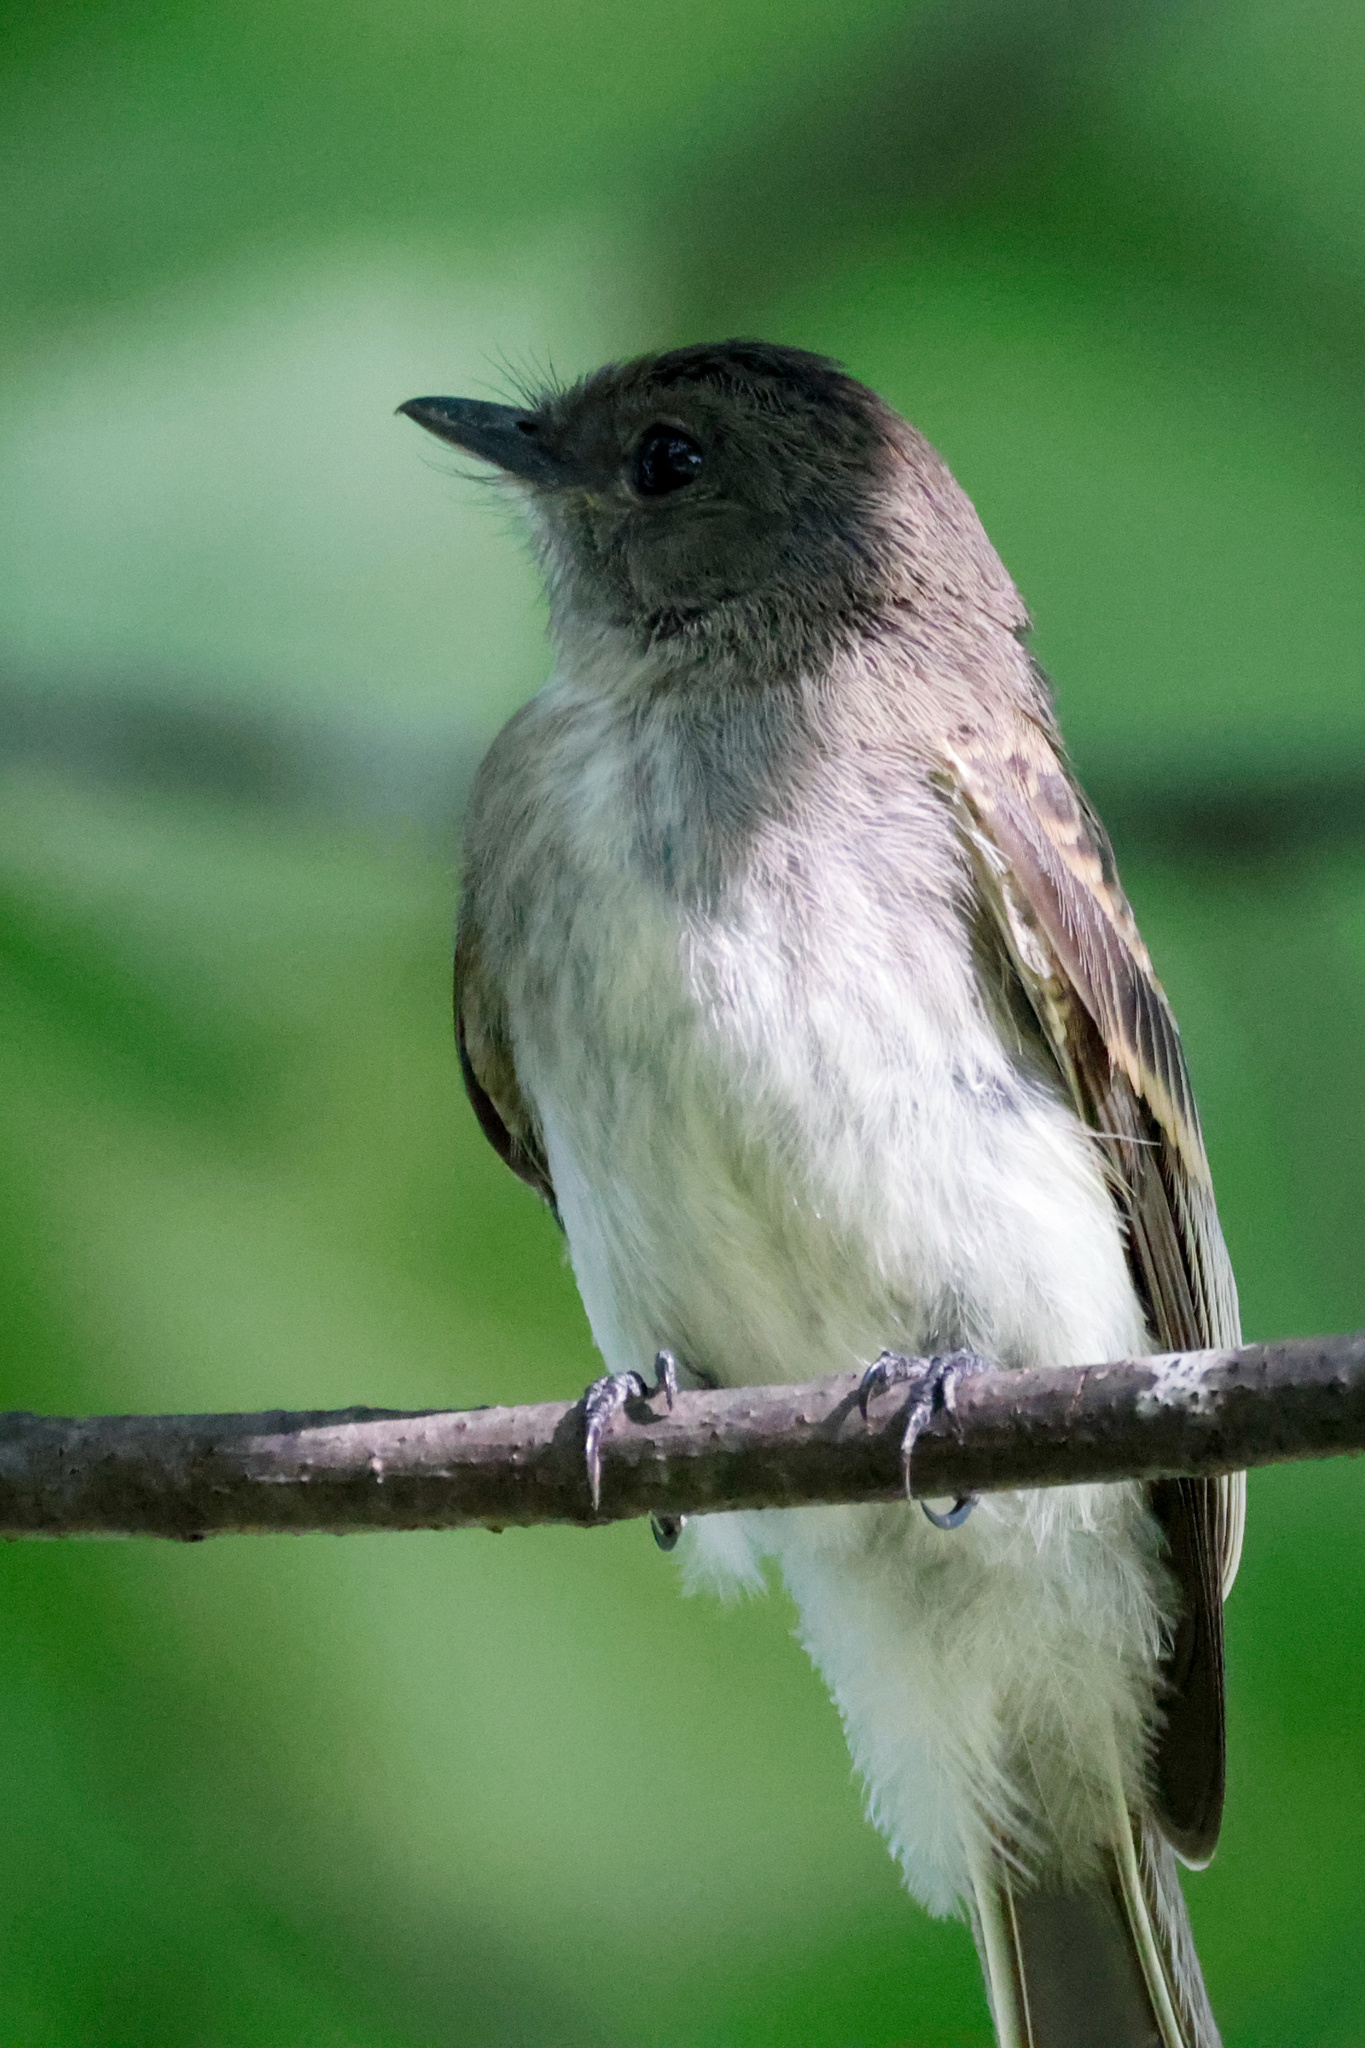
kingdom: Animalia
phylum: Chordata
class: Aves
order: Passeriformes
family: Tyrannidae
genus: Sayornis
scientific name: Sayornis phoebe
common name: Eastern phoebe
